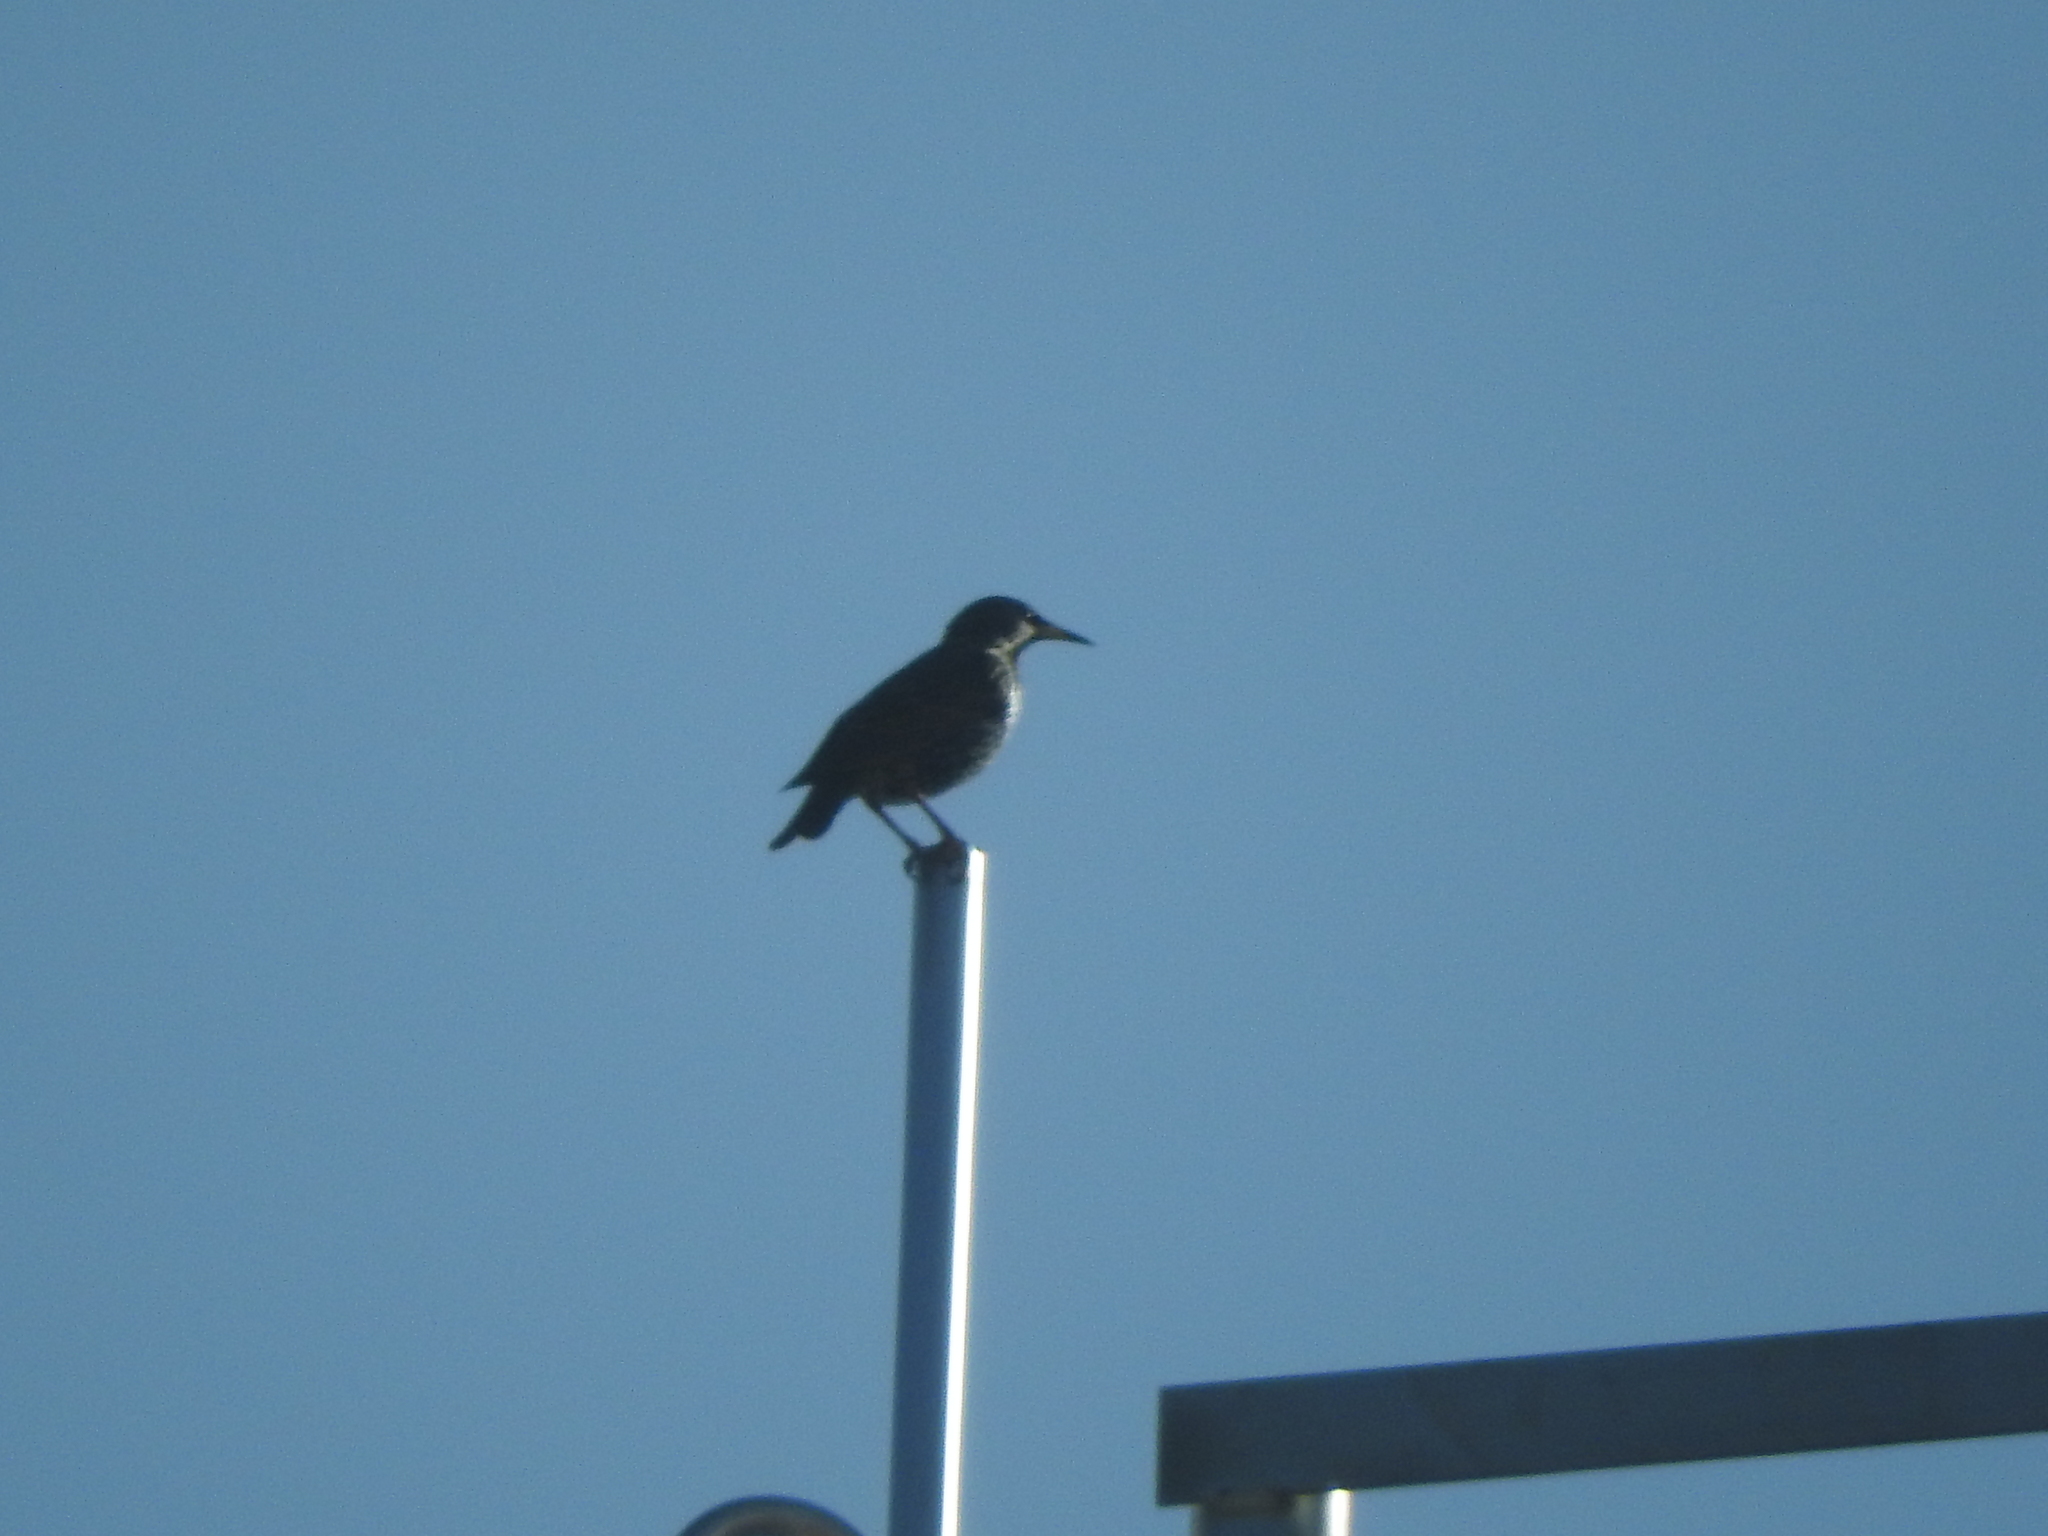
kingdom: Animalia
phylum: Chordata
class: Aves
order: Passeriformes
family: Sturnidae
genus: Sturnus
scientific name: Sturnus vulgaris
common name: Common starling
